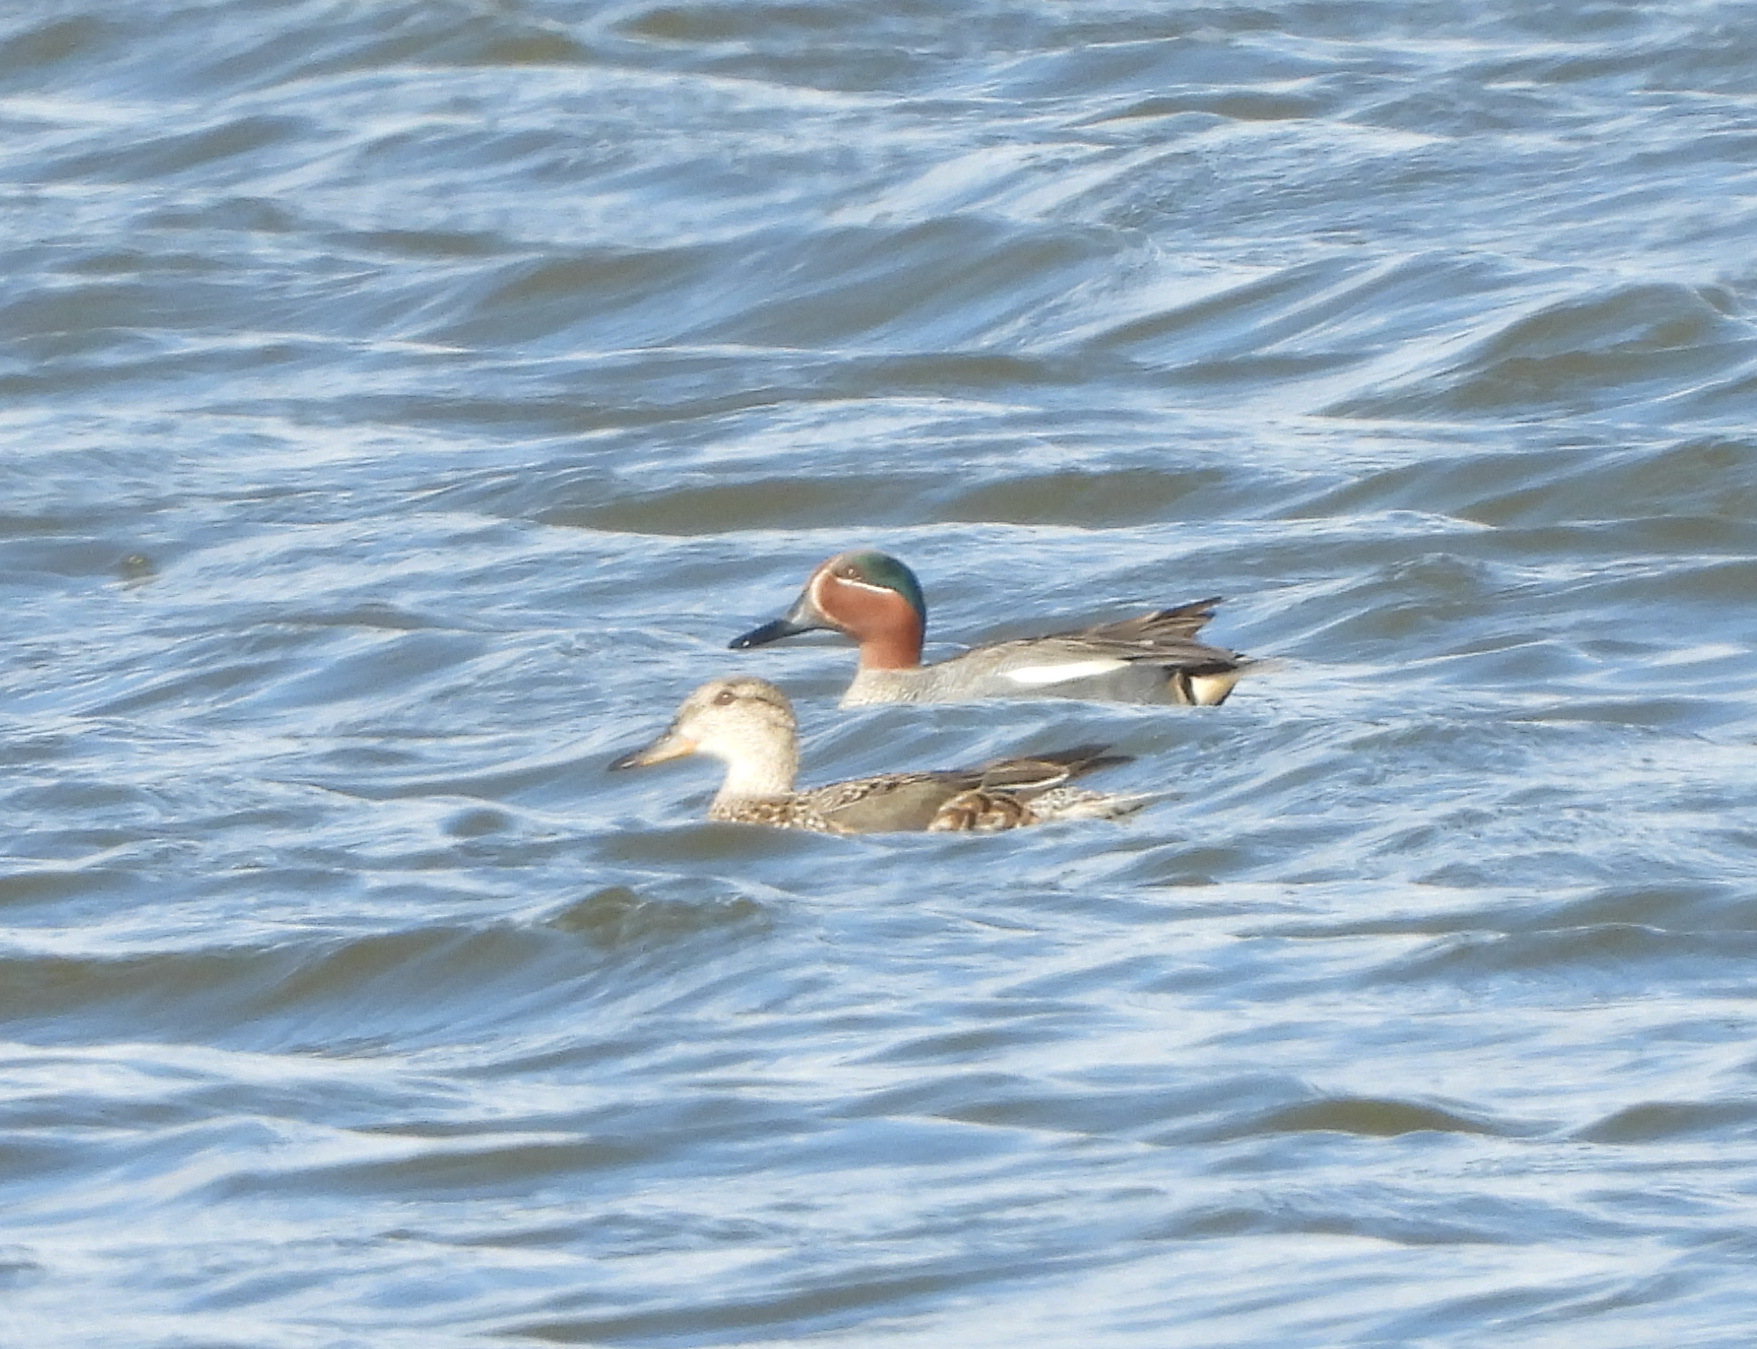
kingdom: Animalia
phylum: Chordata
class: Aves
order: Anseriformes
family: Anatidae
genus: Anas
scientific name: Anas crecca
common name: Eurasian teal
